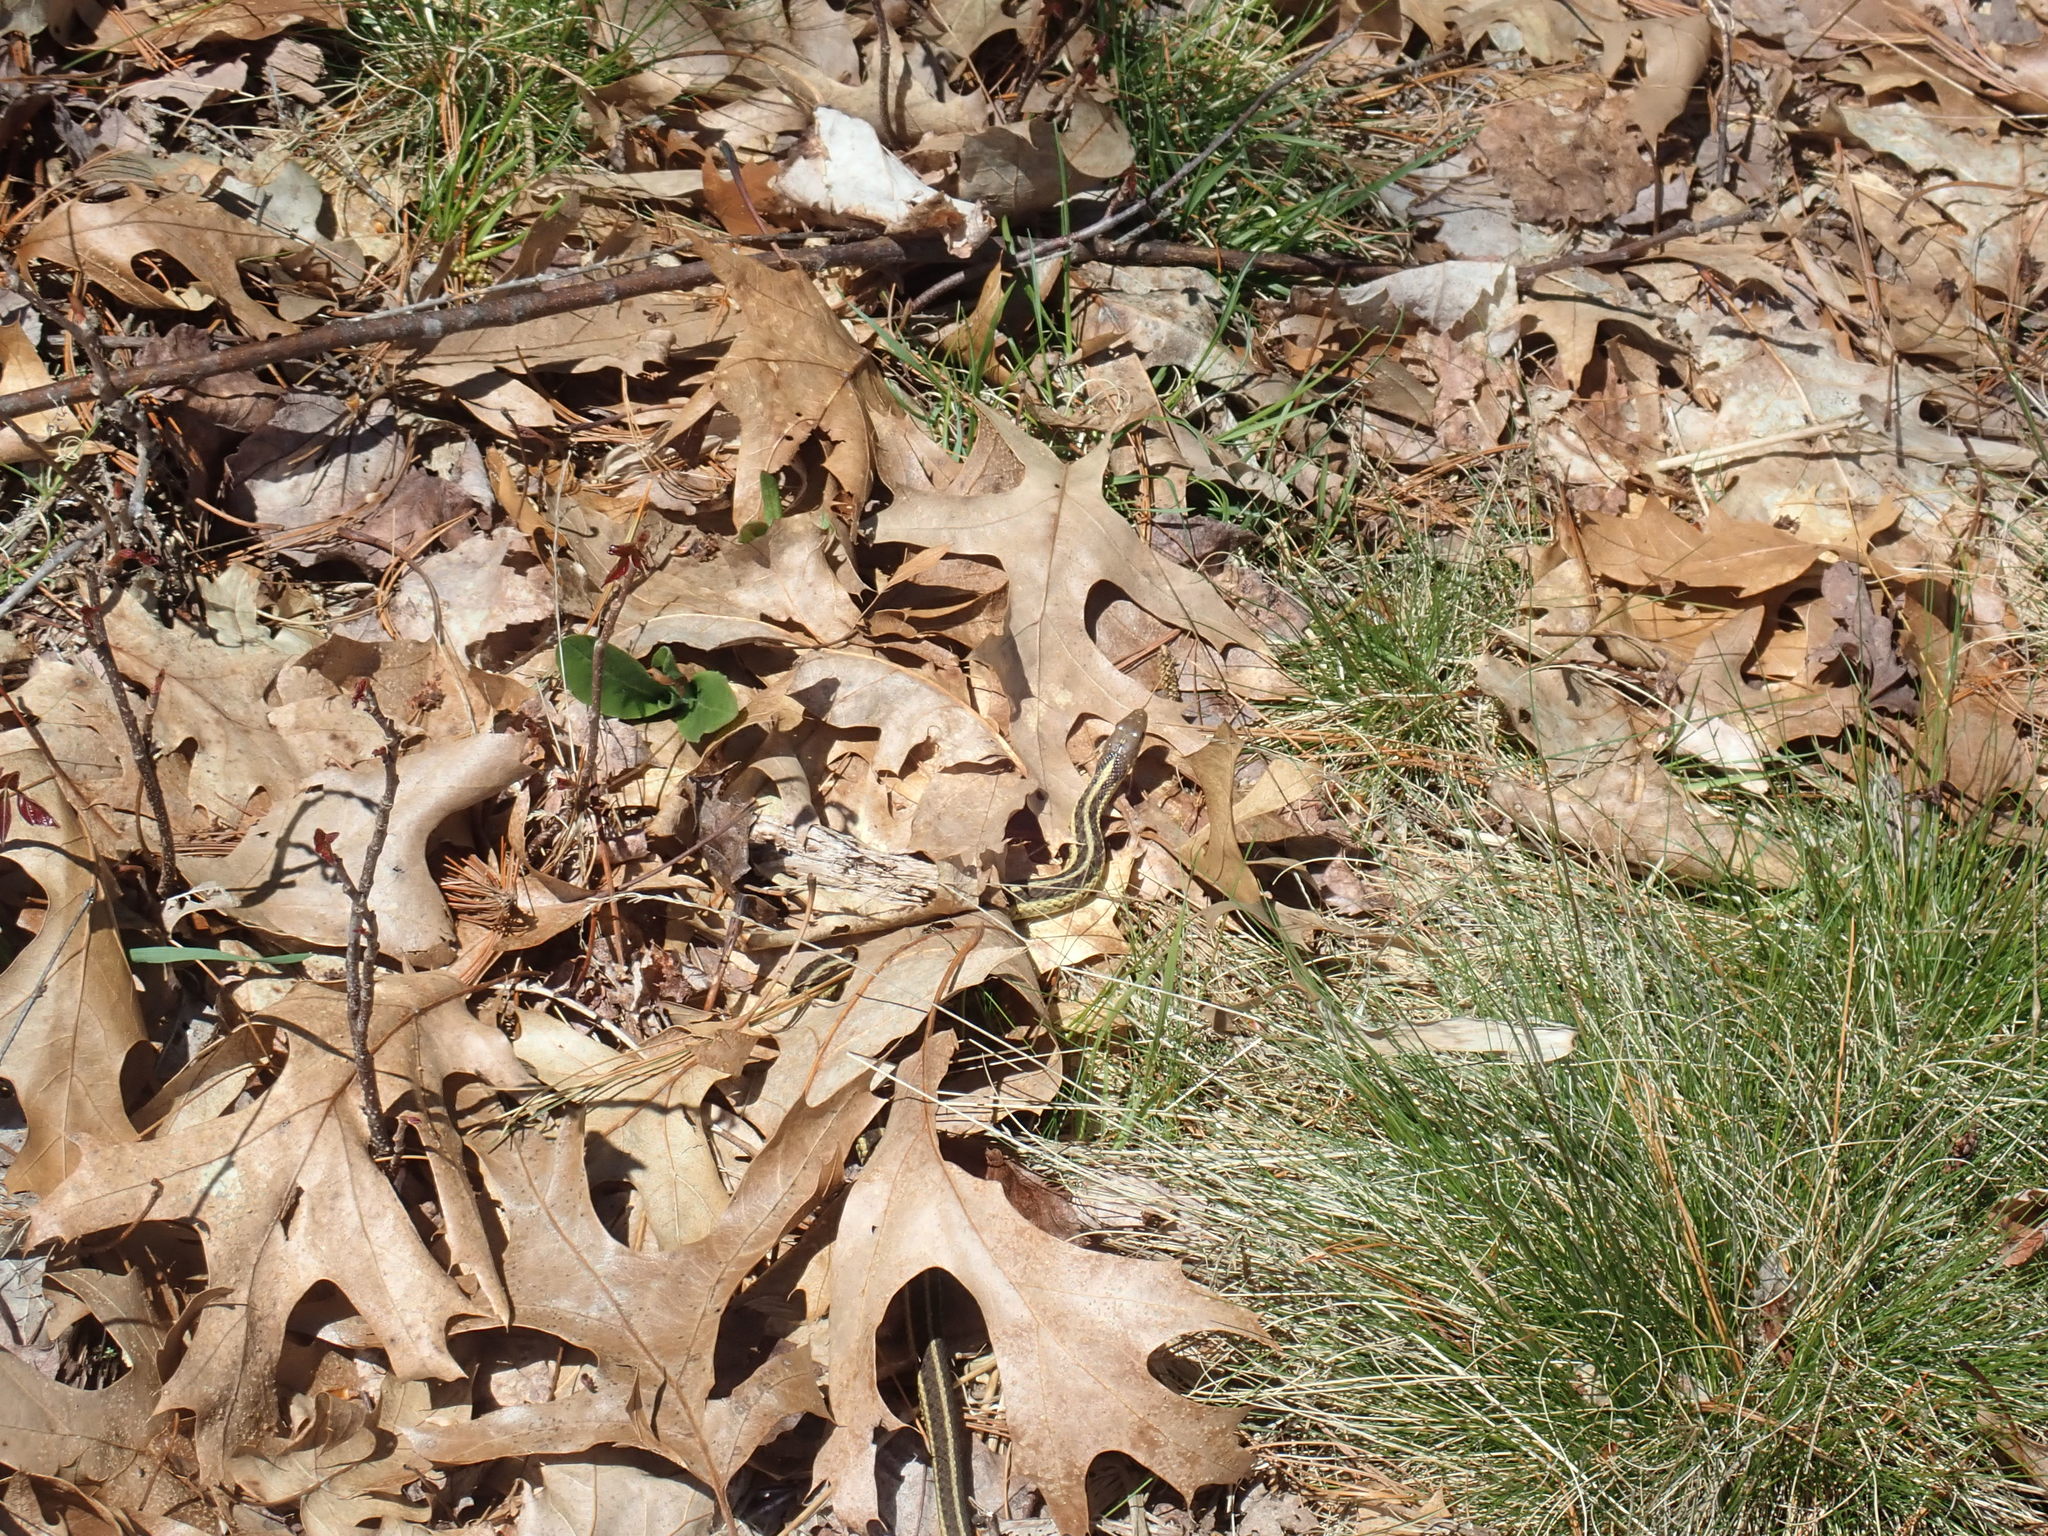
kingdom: Animalia
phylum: Chordata
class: Squamata
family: Colubridae
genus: Thamnophis
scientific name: Thamnophis sirtalis
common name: Common garter snake
